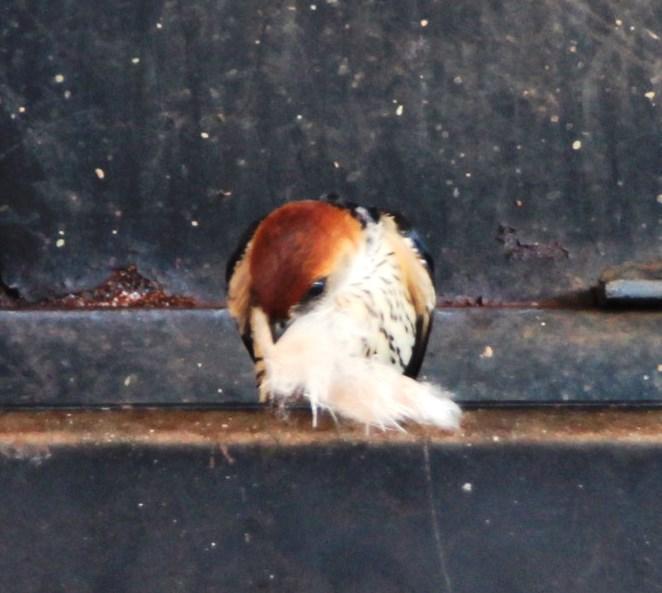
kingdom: Animalia
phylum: Chordata
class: Aves
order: Passeriformes
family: Hirundinidae
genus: Cecropis
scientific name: Cecropis cucullata
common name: Greater striped-swallow
